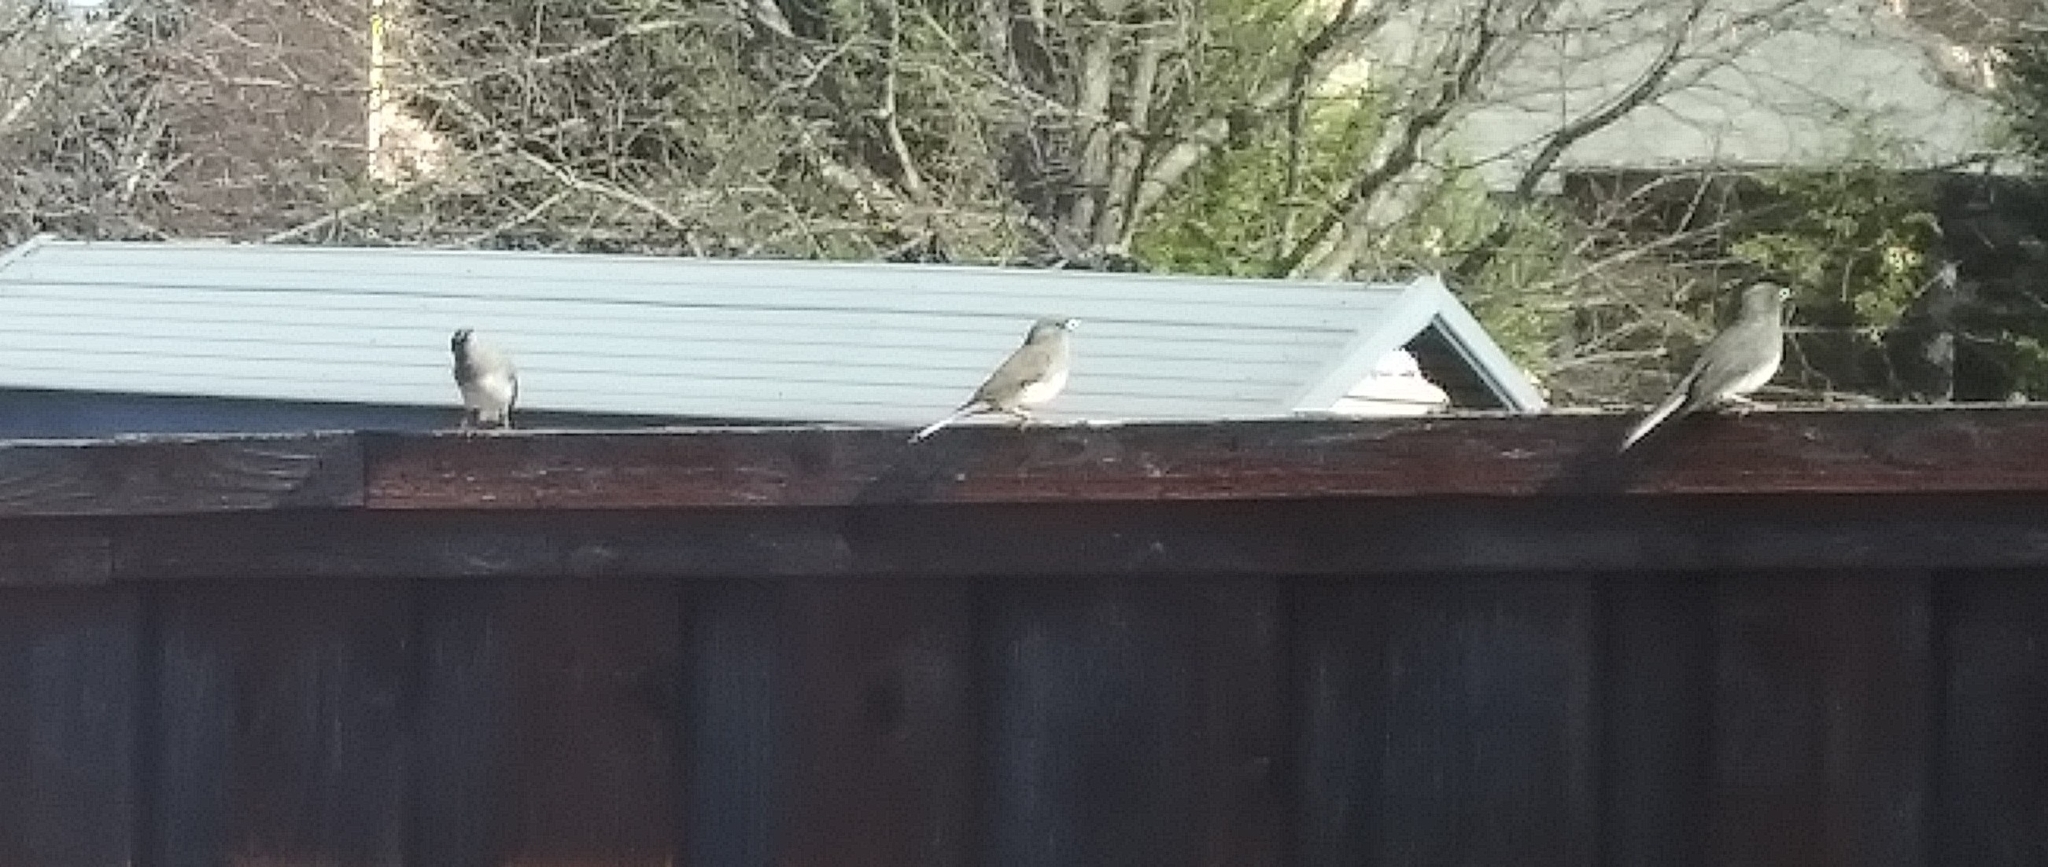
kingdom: Animalia
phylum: Chordata
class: Aves
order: Passeriformes
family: Passerellidae
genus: Junco
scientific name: Junco hyemalis
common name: Dark-eyed junco
